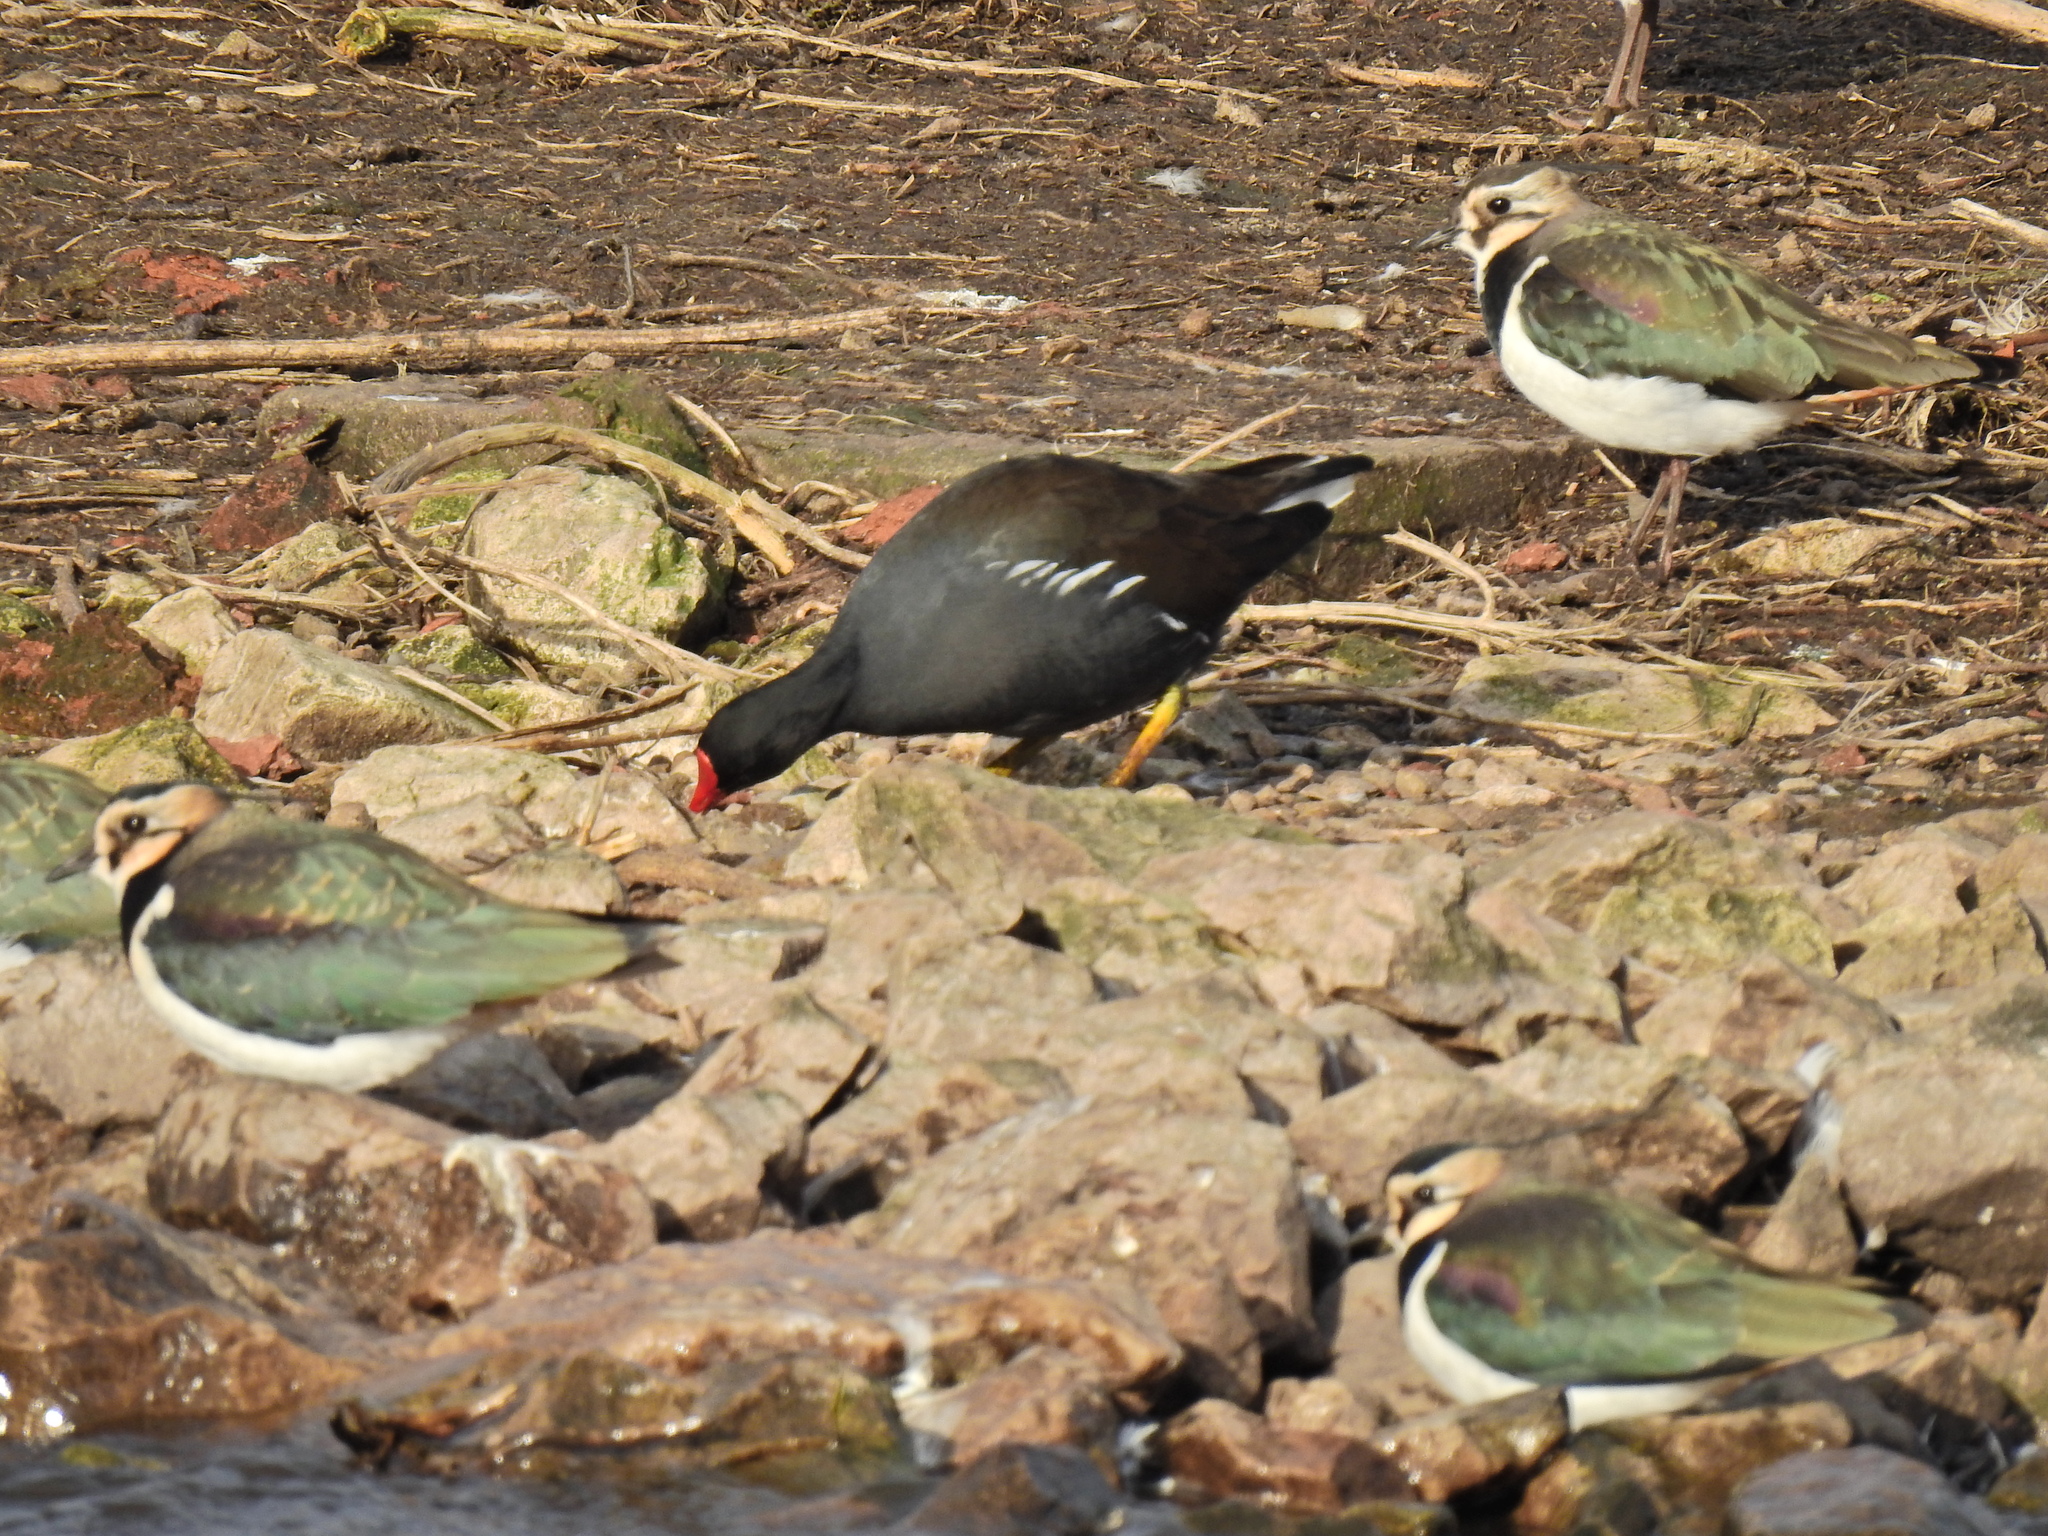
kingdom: Animalia
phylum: Chordata
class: Aves
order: Gruiformes
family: Rallidae
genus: Gallinula
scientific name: Gallinula chloropus
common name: Common moorhen
